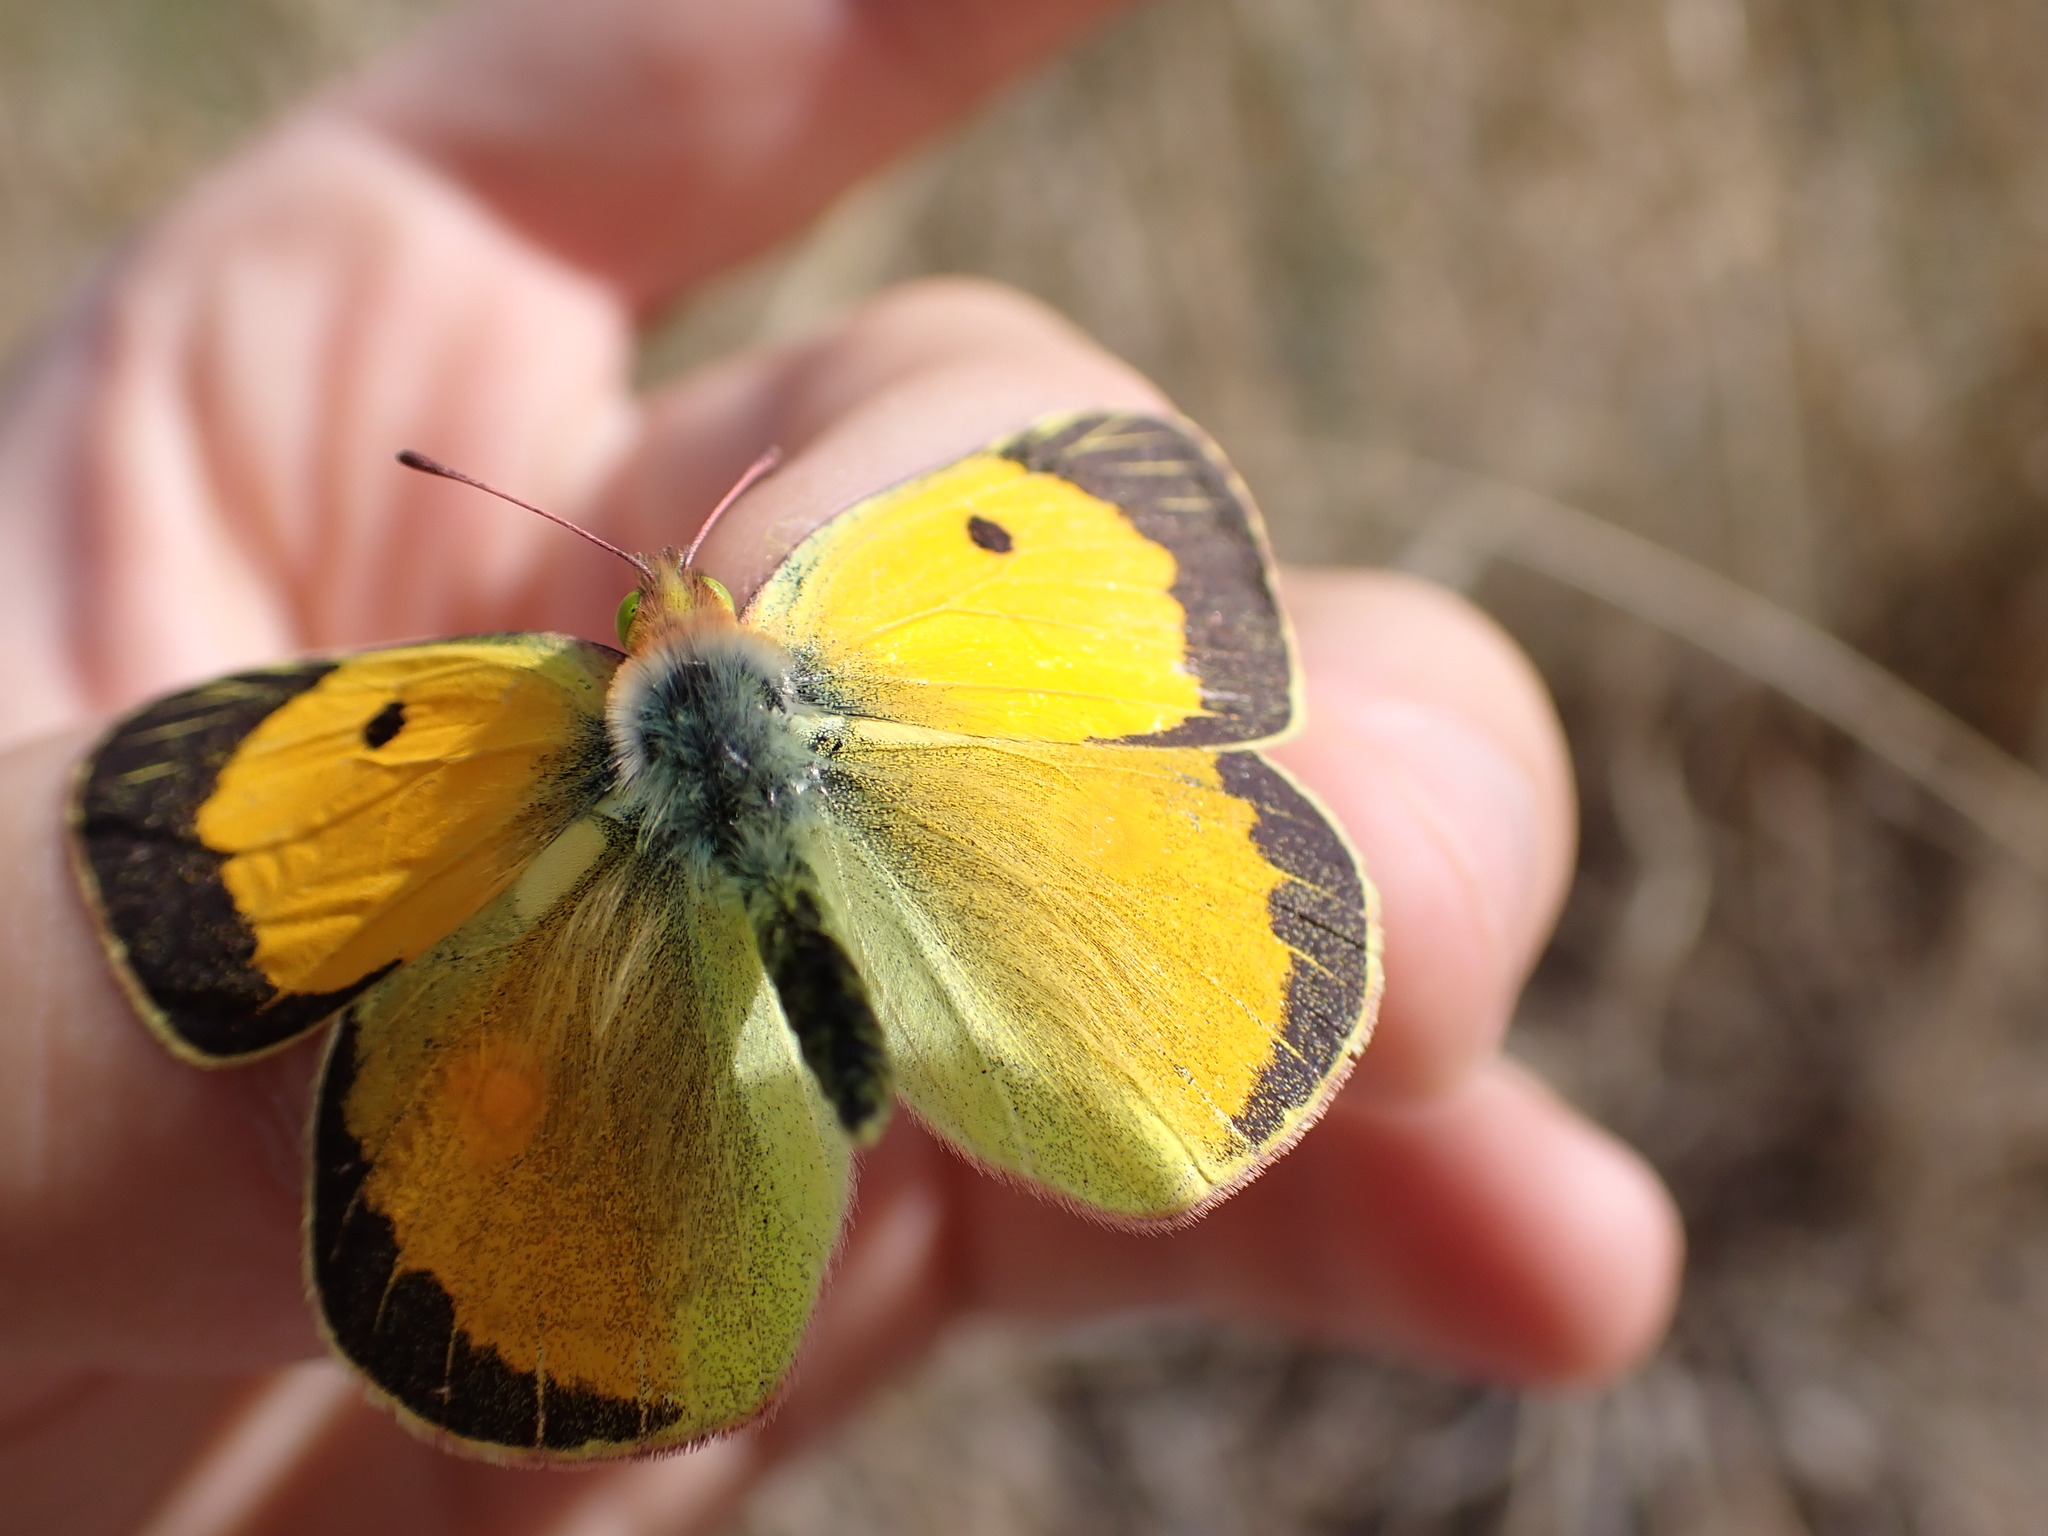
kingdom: Animalia
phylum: Arthropoda
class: Insecta
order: Lepidoptera
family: Pieridae
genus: Colias
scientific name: Colias croceus
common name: Clouded yellow
